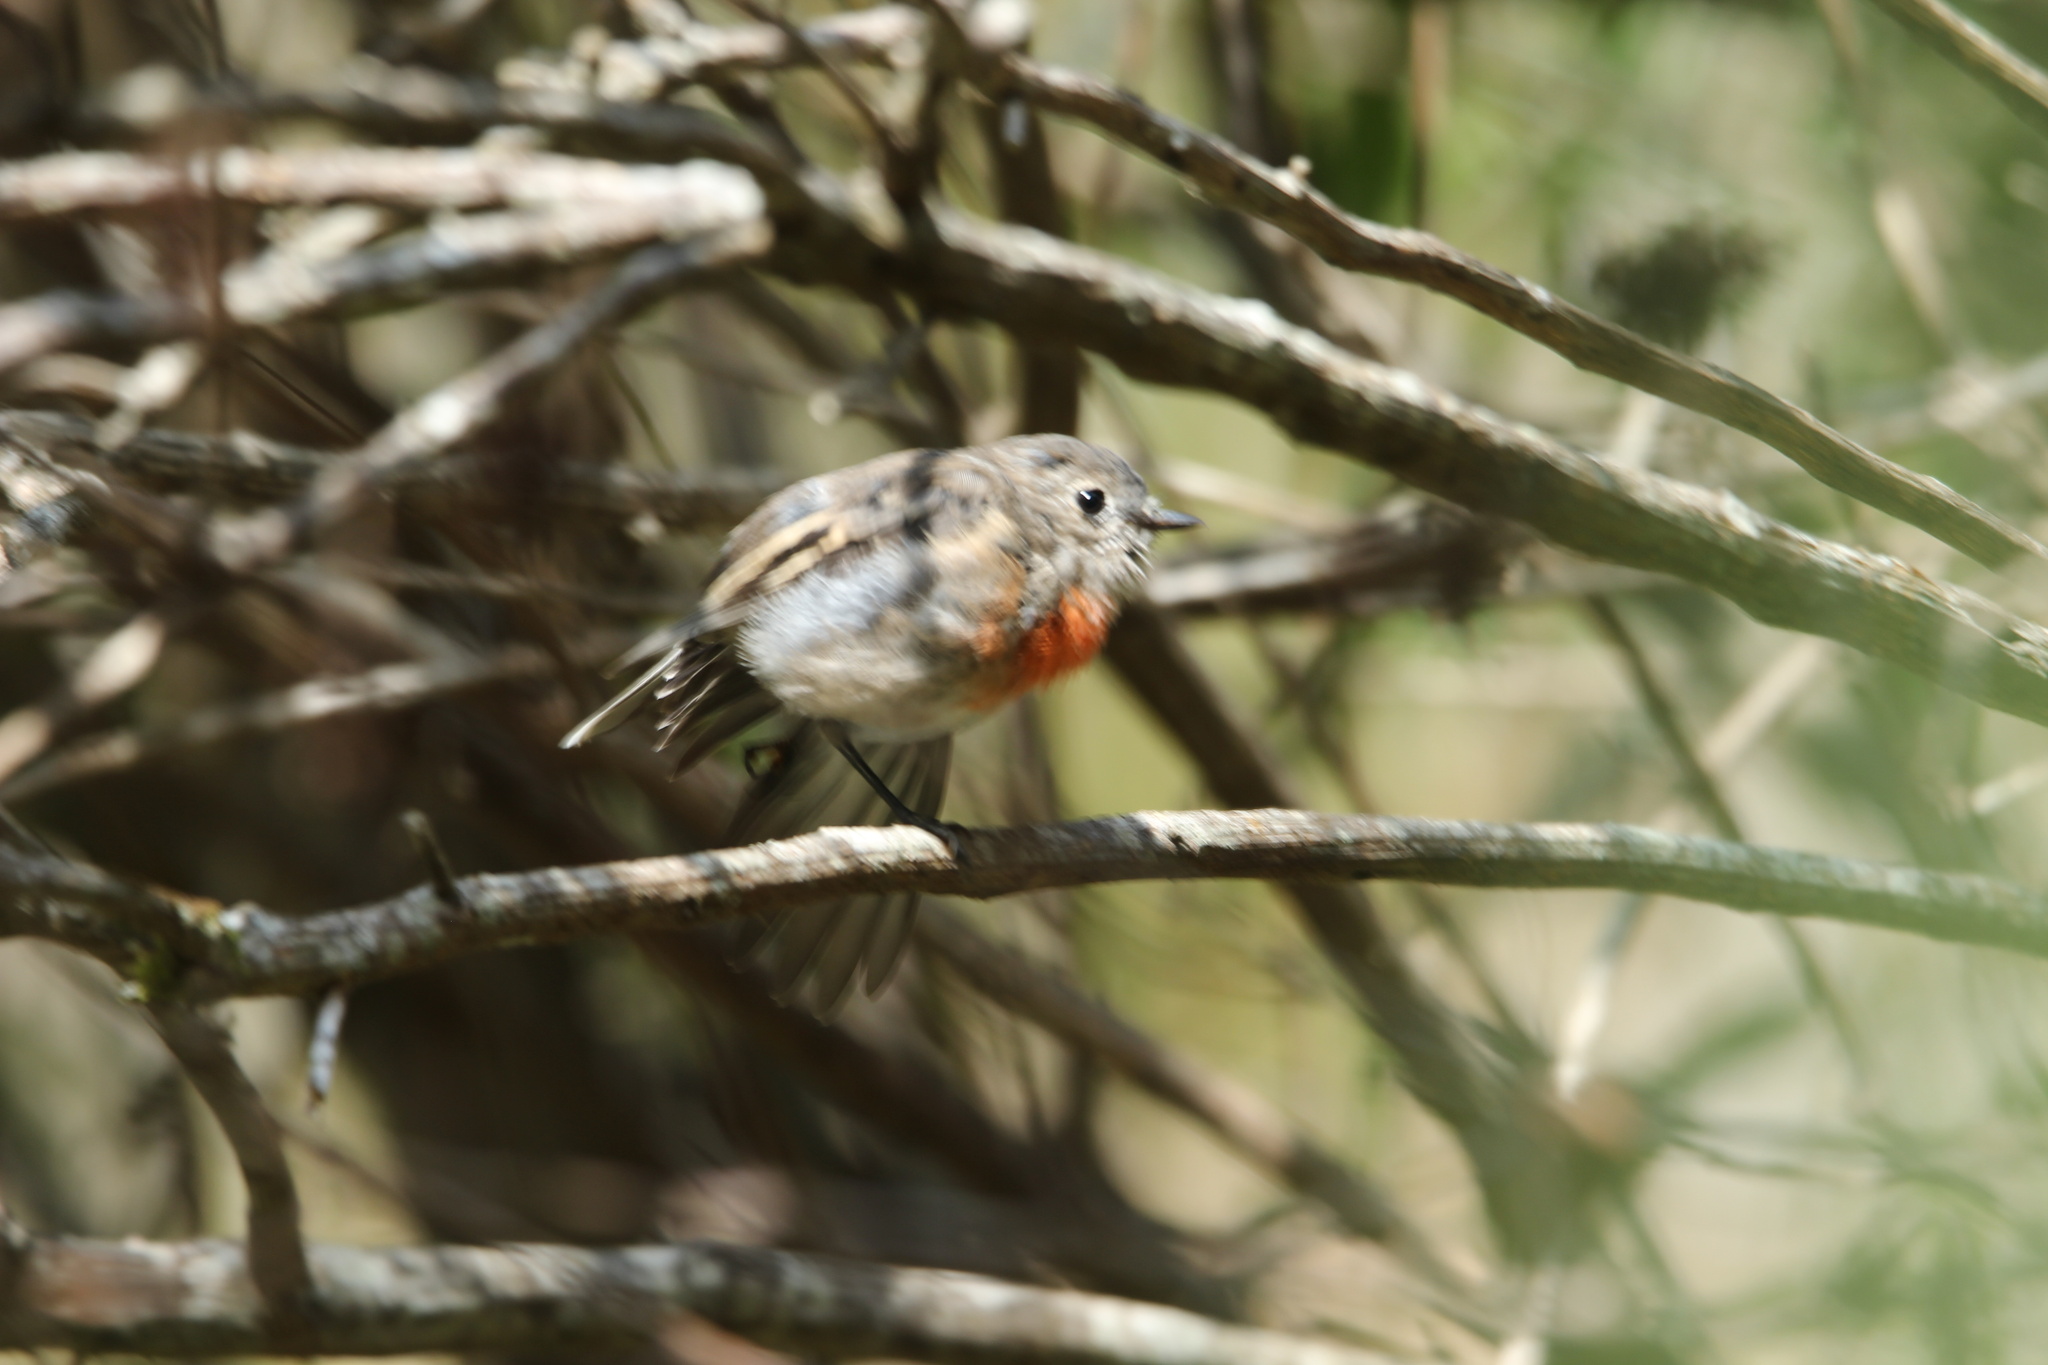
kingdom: Animalia
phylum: Chordata
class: Aves
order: Passeriformes
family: Petroicidae
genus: Petroica
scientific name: Petroica boodang
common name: Scarlet robin
